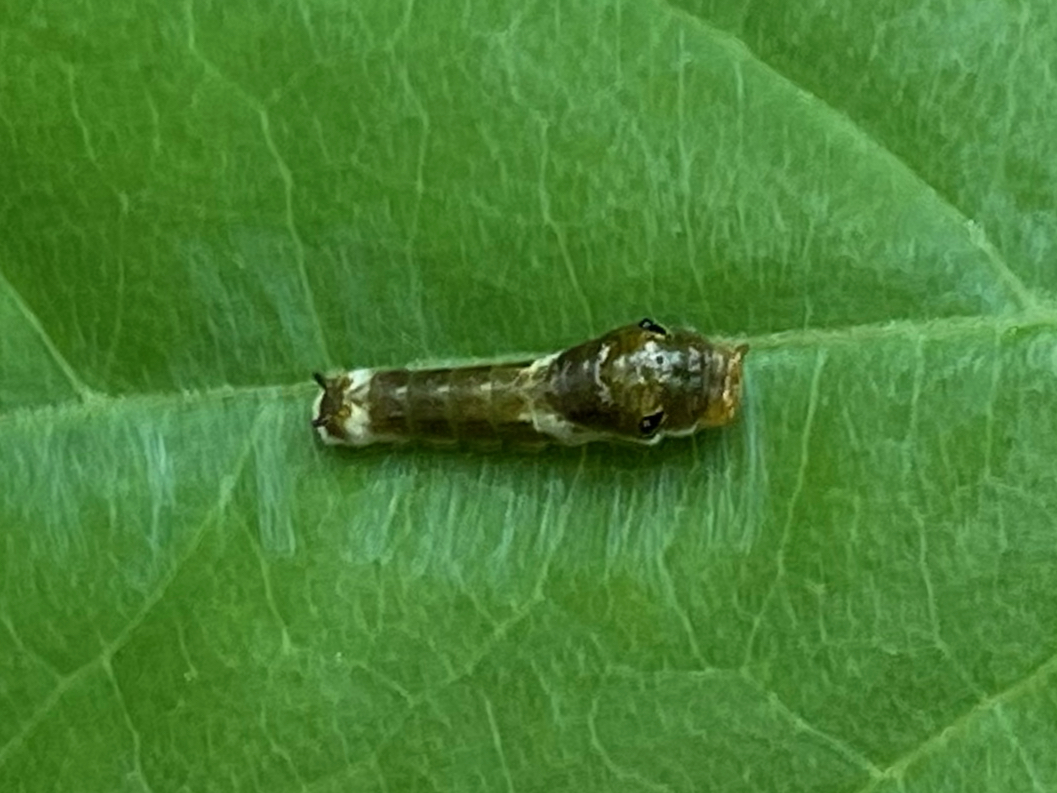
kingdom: Animalia
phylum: Arthropoda
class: Insecta
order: Lepidoptera
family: Papilionidae
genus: Papilio
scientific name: Papilio troilus
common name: Spicebush swallowtail
